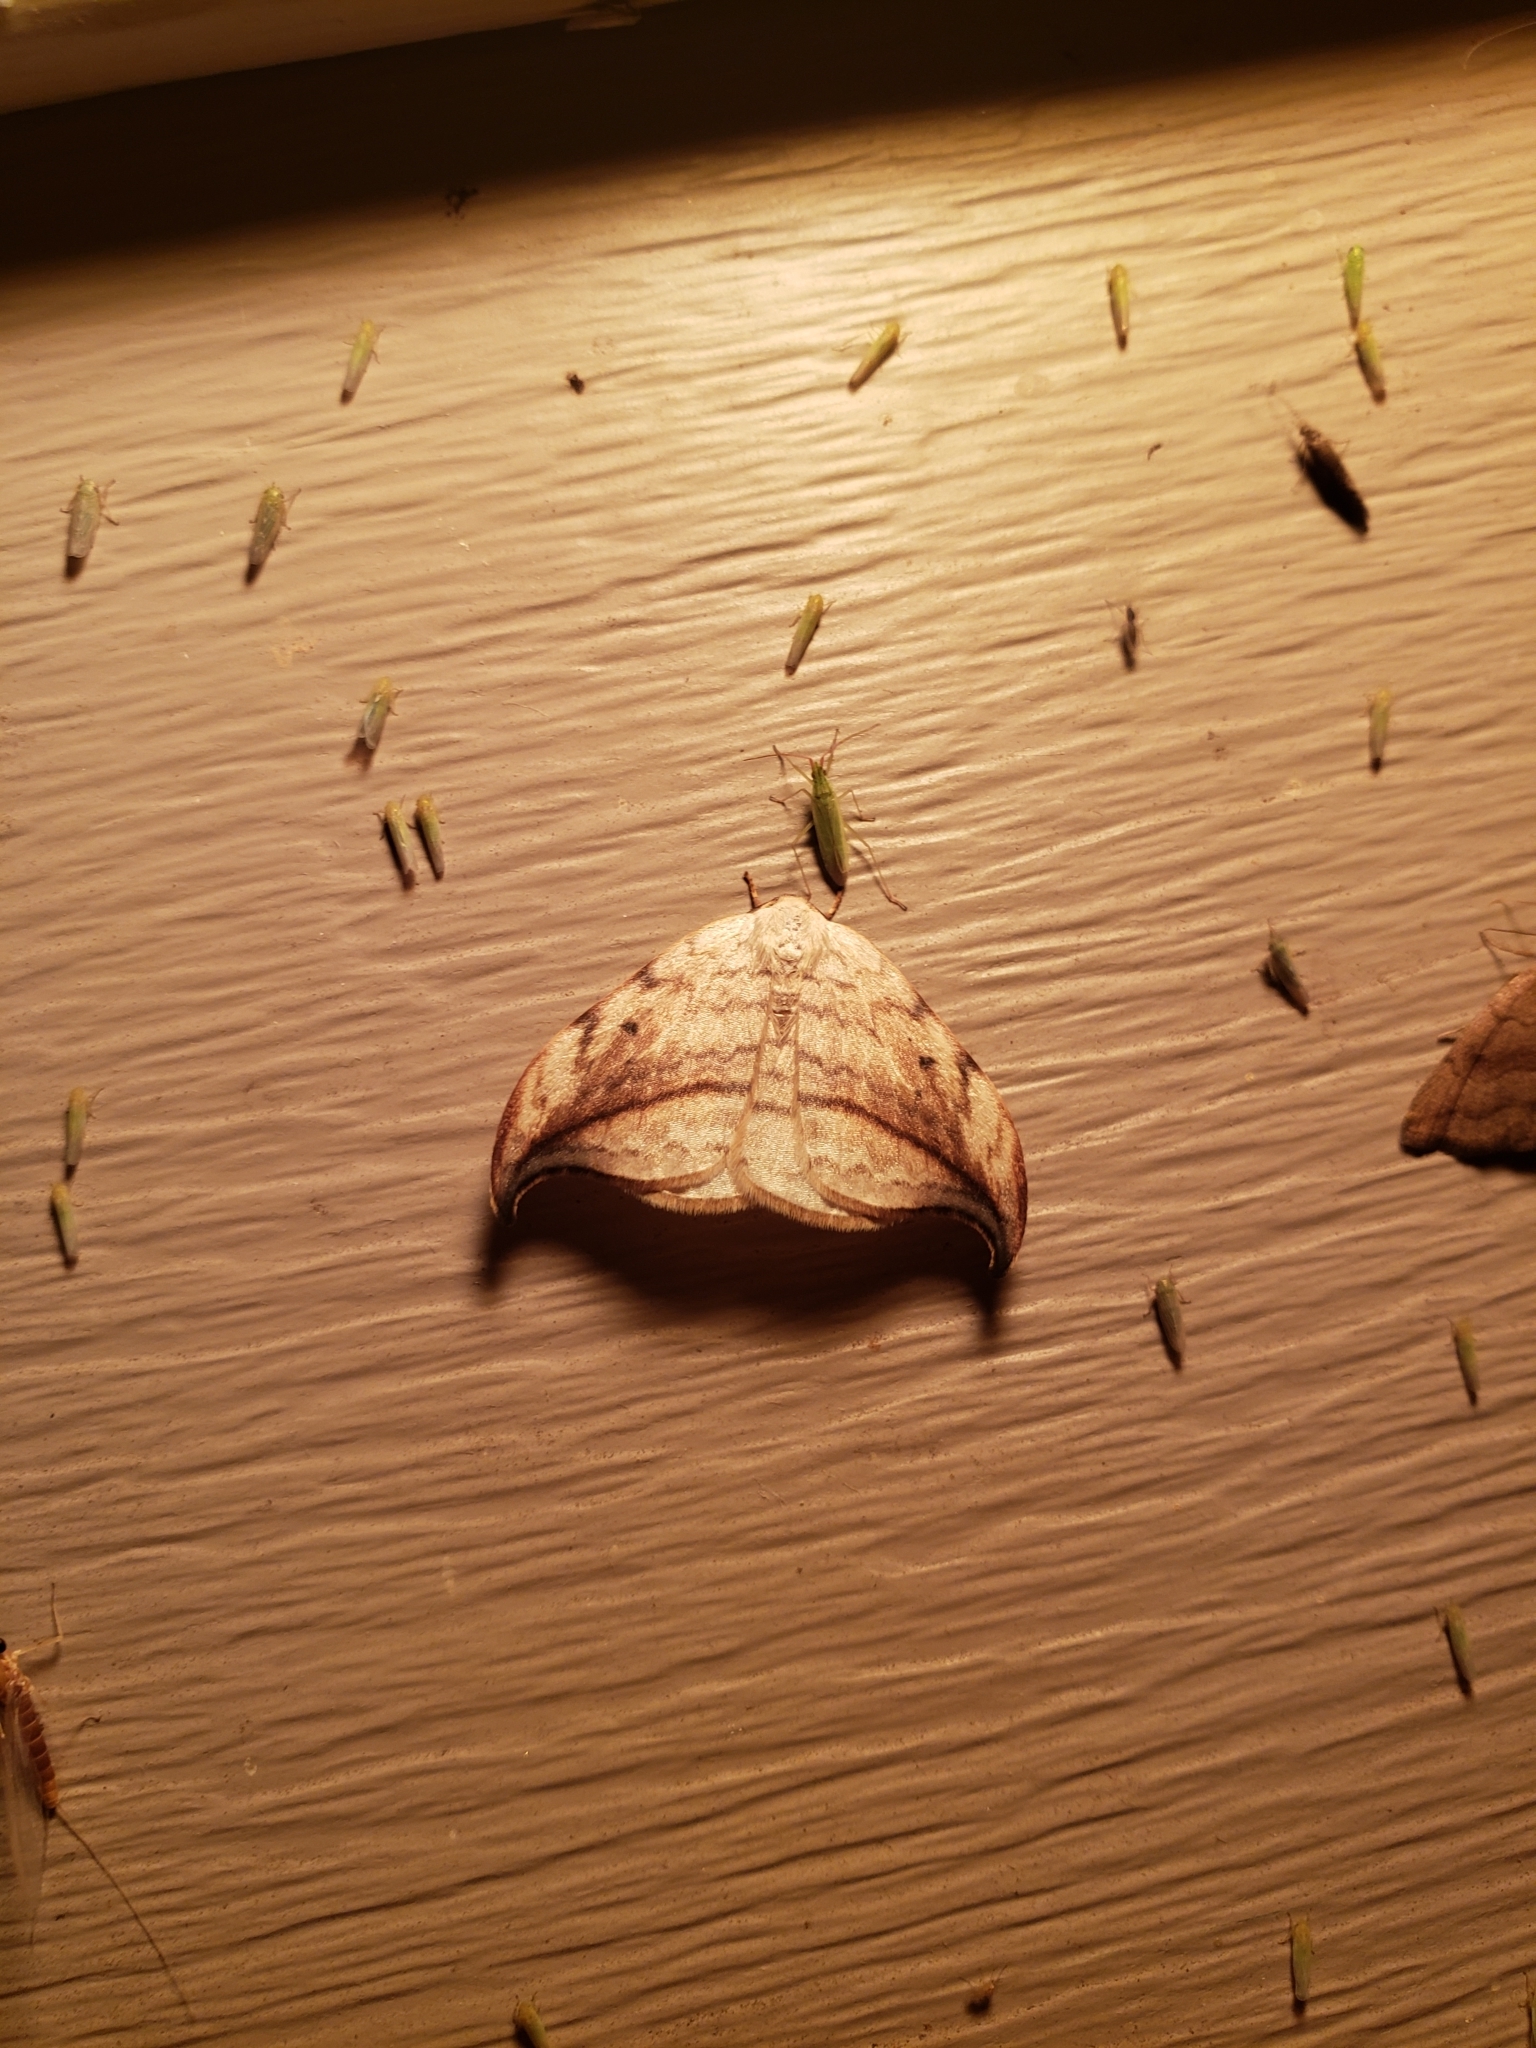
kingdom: Animalia
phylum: Arthropoda
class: Insecta
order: Lepidoptera
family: Drepanidae
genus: Drepana
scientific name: Drepana arcuata
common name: Arched hooktip moth
